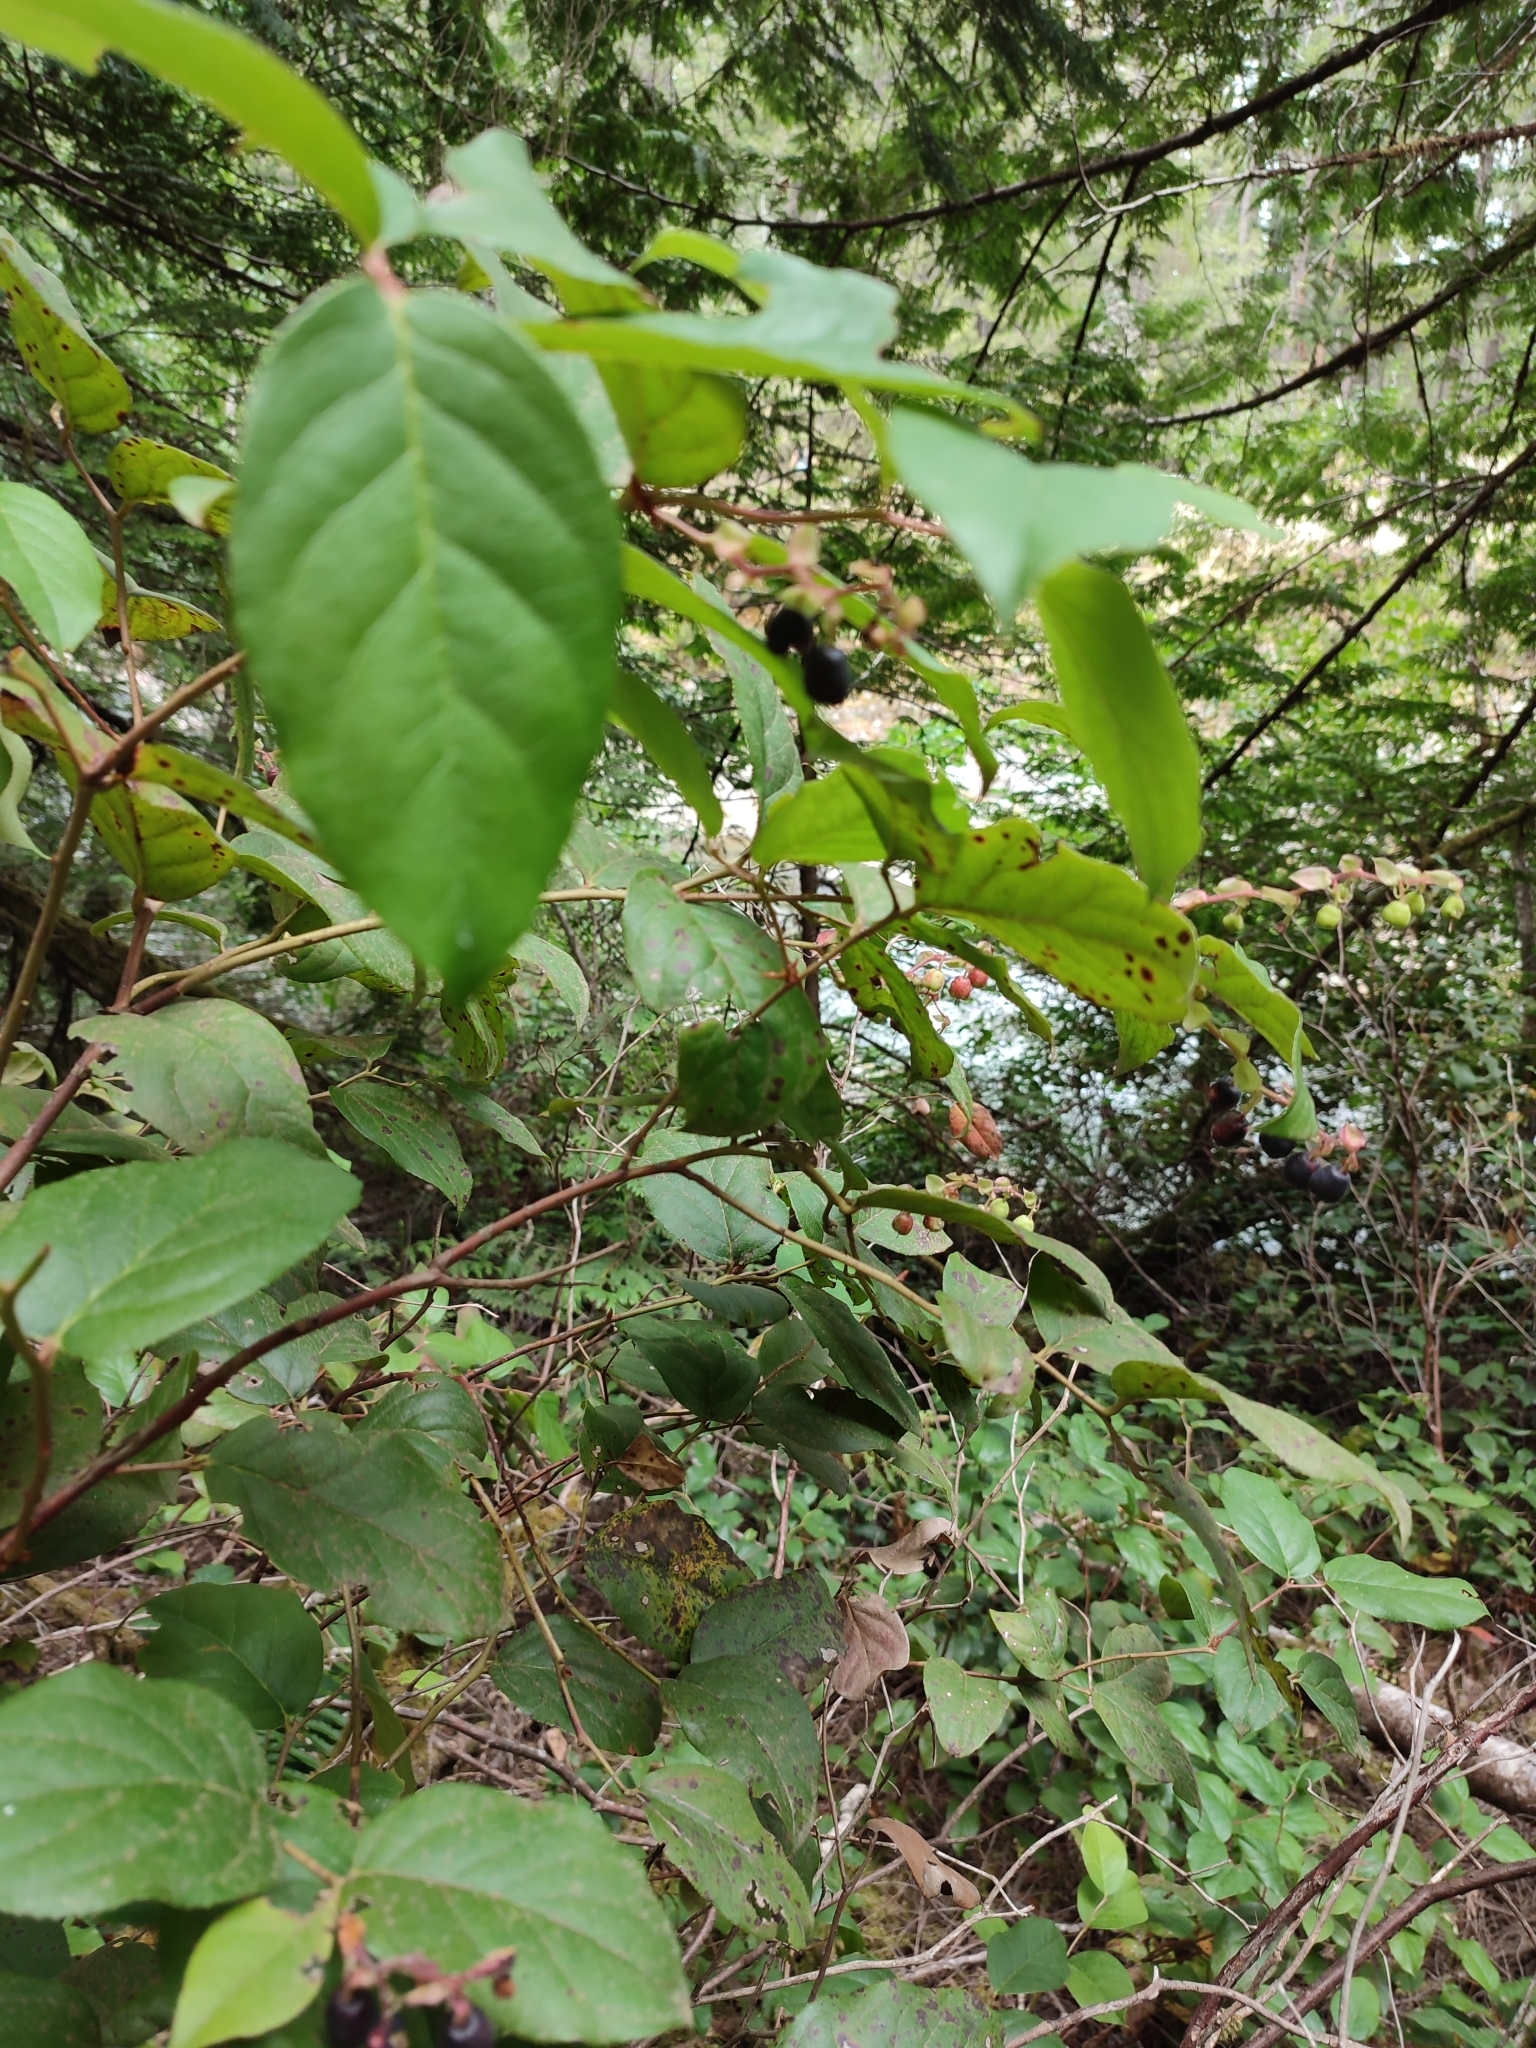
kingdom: Plantae
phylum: Tracheophyta
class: Magnoliopsida
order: Ericales
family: Ericaceae
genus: Gaultheria
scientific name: Gaultheria shallon
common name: Shallon
